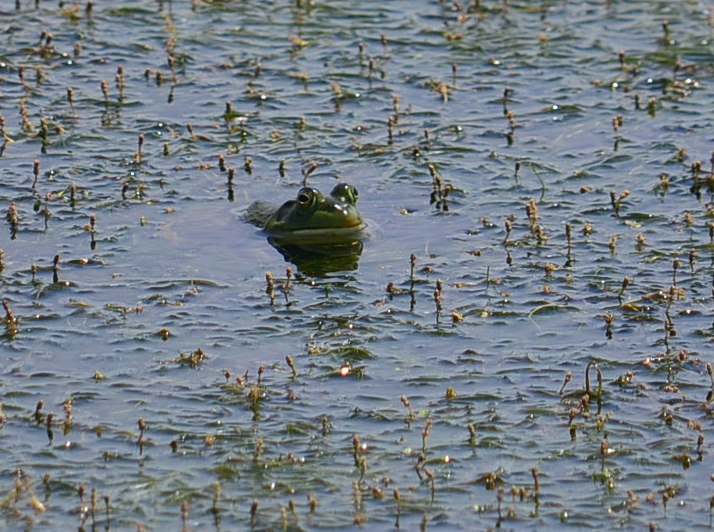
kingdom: Animalia
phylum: Chordata
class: Amphibia
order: Anura
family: Ranidae
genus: Lithobates
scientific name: Lithobates catesbeianus
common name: American bullfrog
